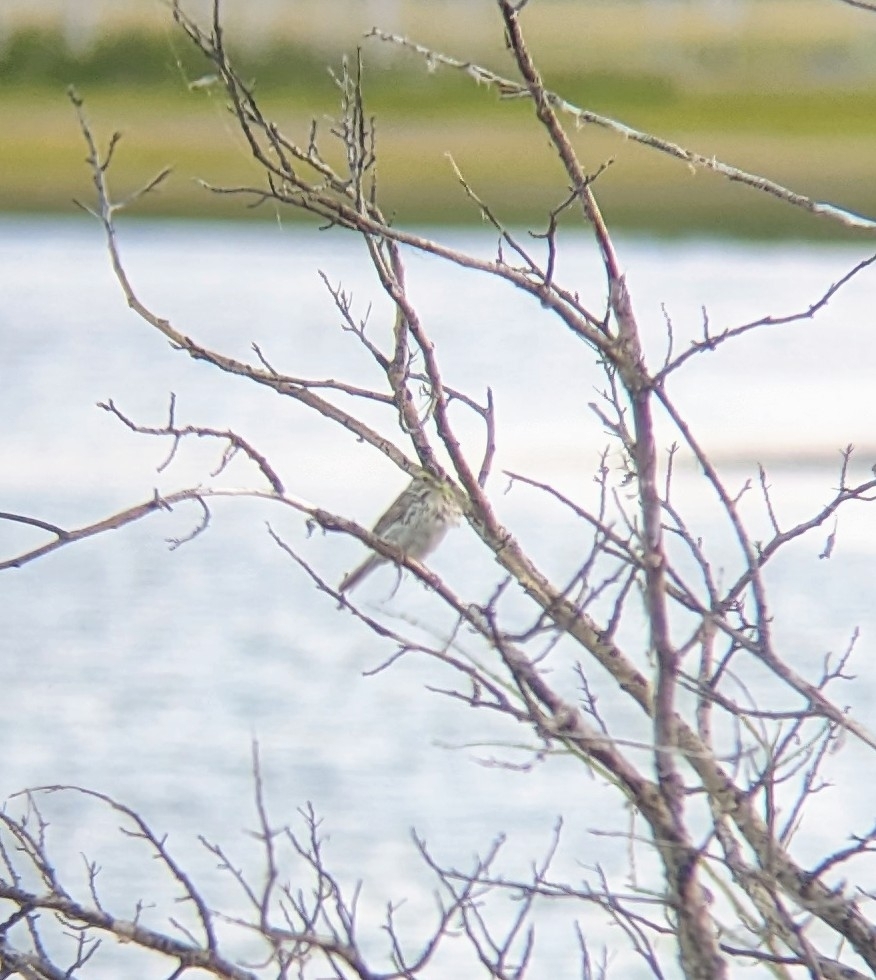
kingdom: Animalia
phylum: Chordata
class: Aves
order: Passeriformes
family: Passerellidae
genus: Passerculus
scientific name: Passerculus sandwichensis
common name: Savannah sparrow
